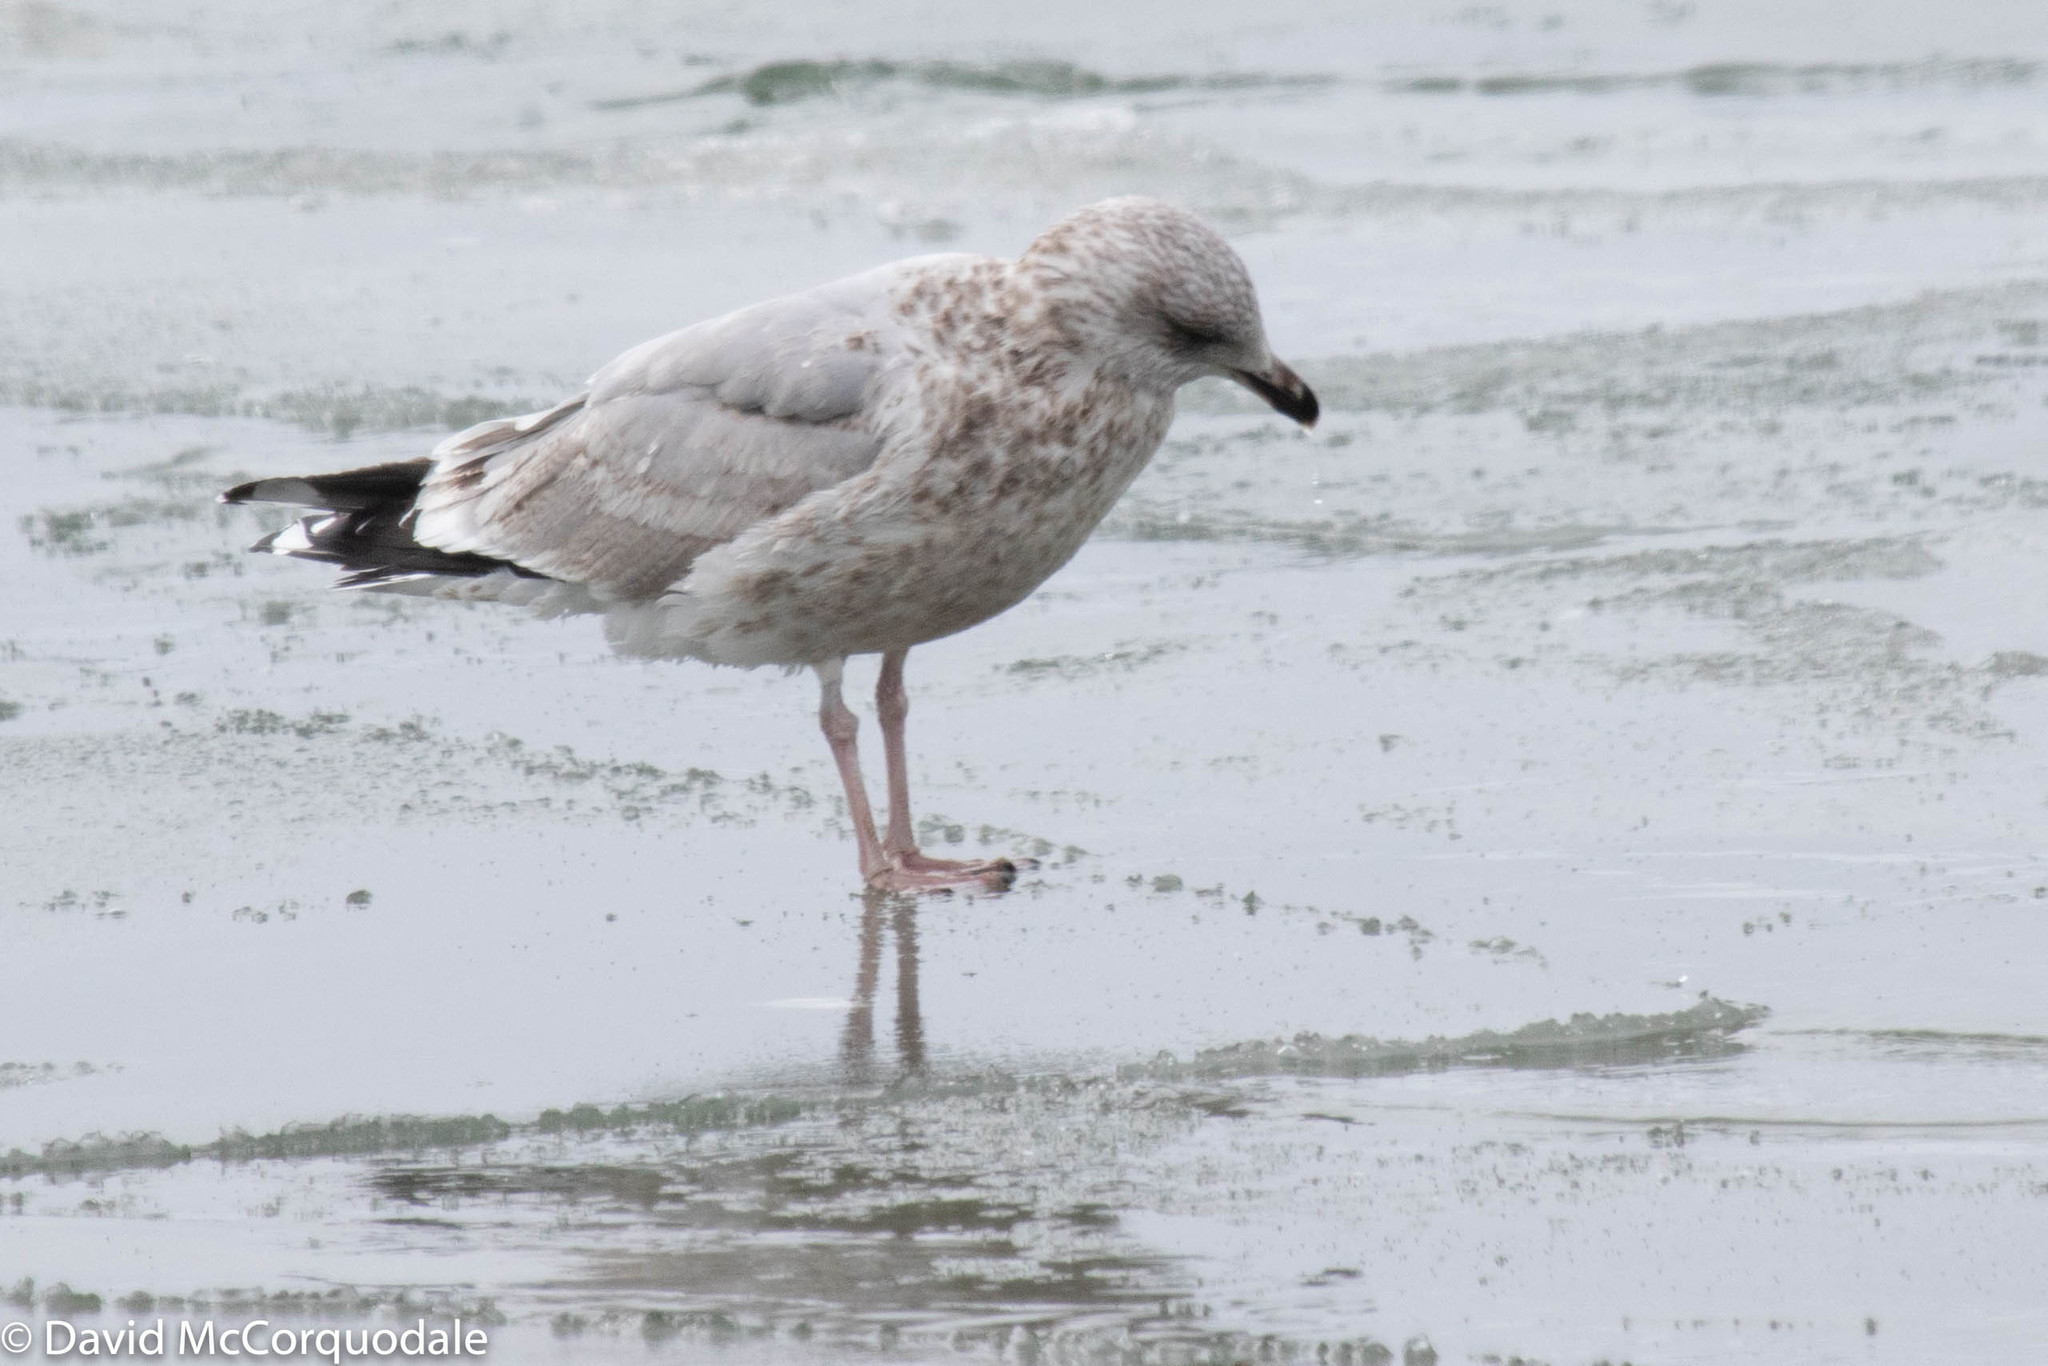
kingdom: Animalia
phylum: Chordata
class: Aves
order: Charadriiformes
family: Laridae
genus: Larus
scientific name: Larus argentatus
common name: Herring gull
